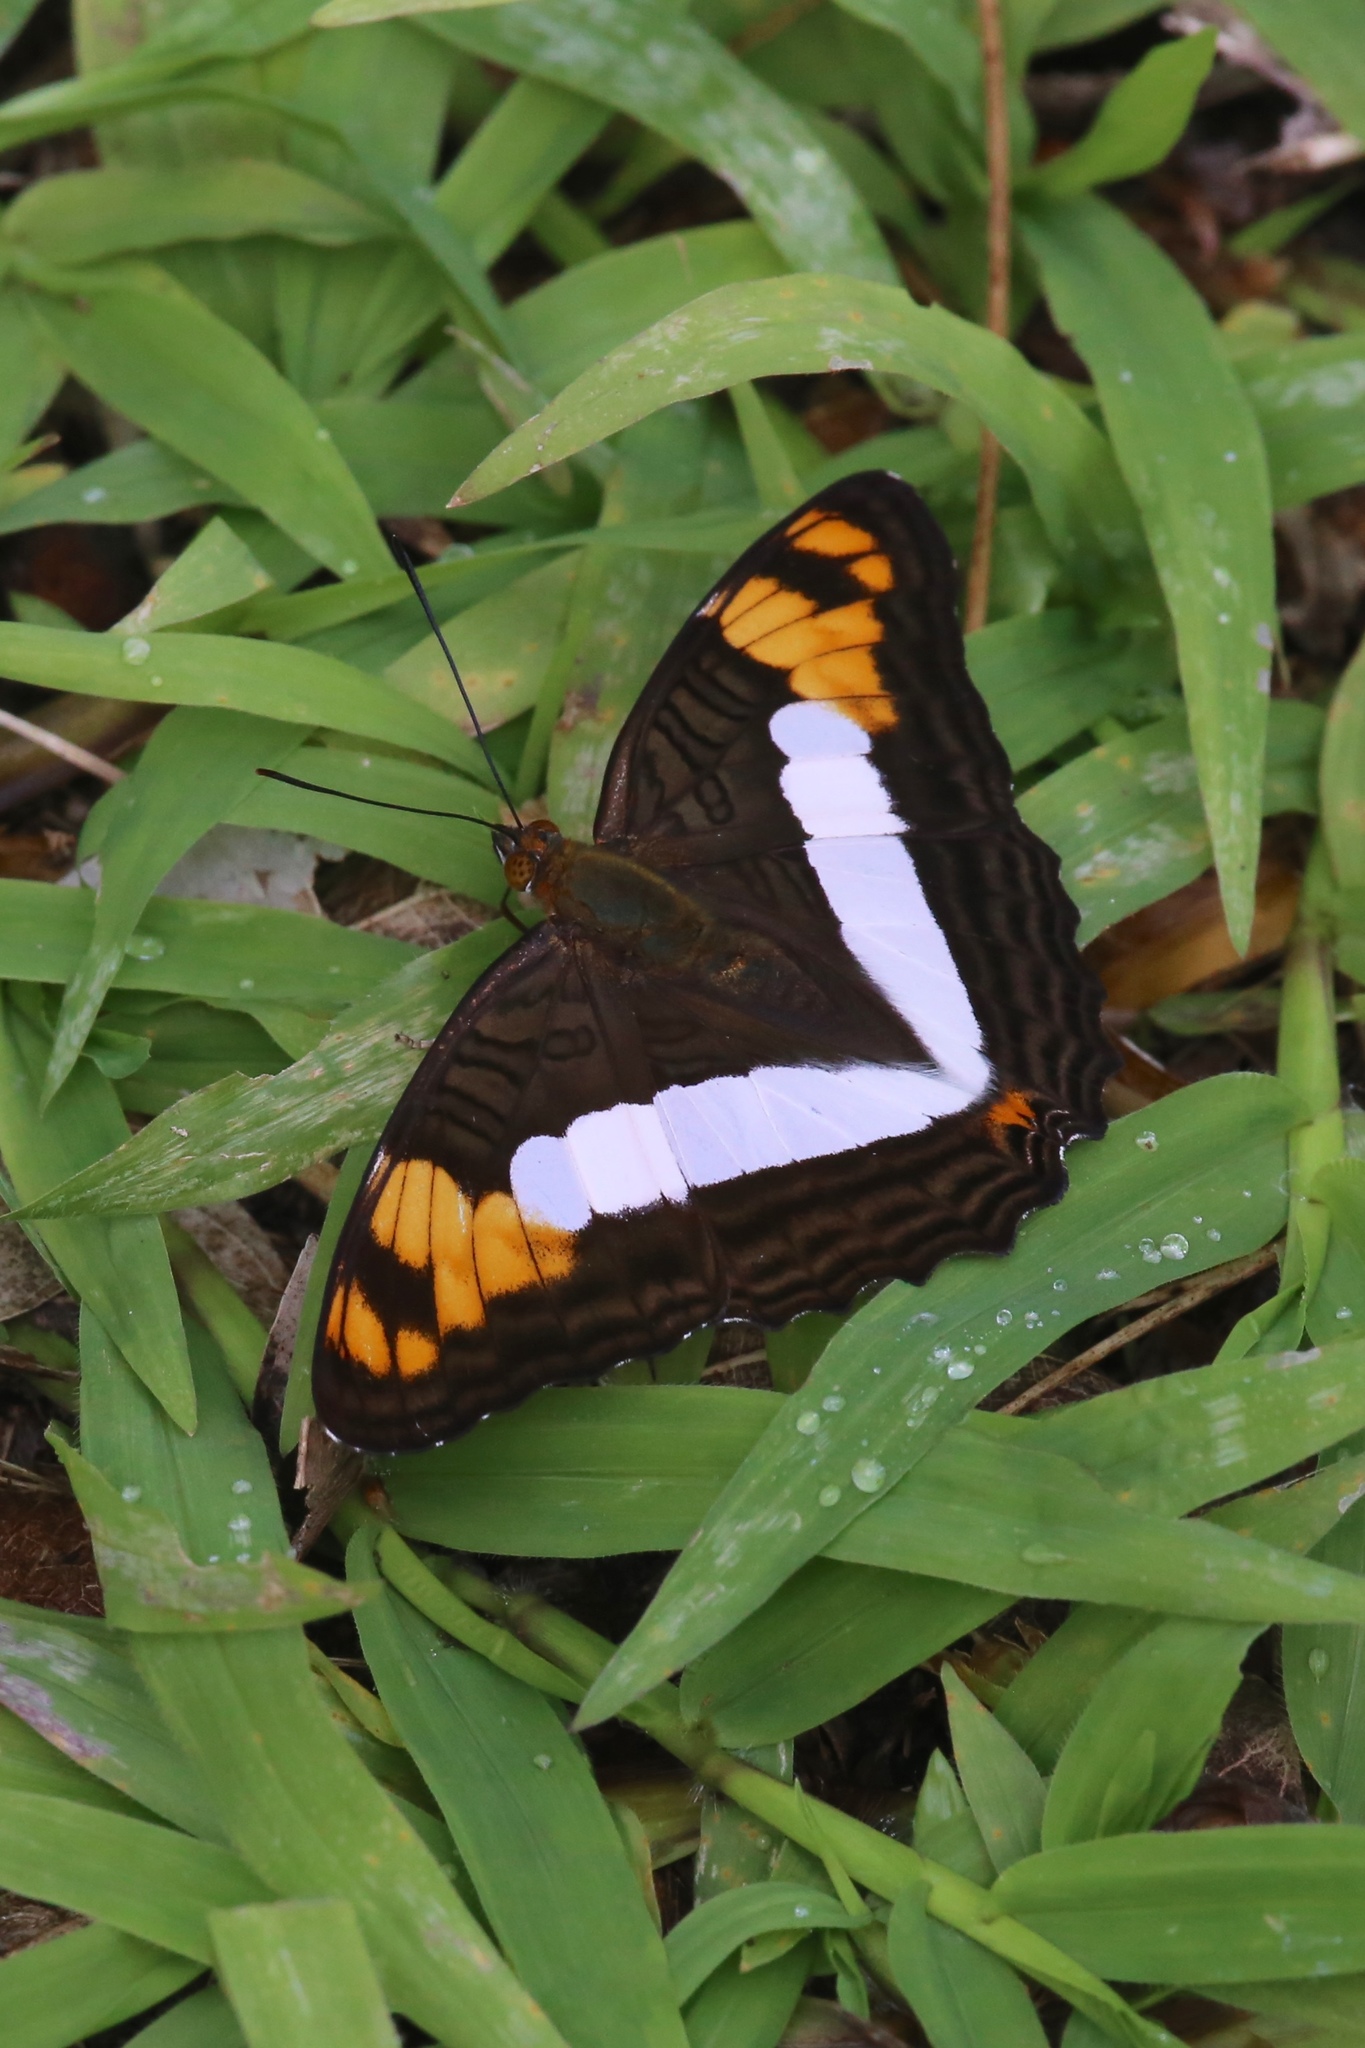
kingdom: Animalia
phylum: Arthropoda
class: Insecta
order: Lepidoptera
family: Nymphalidae
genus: Limenitis
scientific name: Limenitis phylaca
